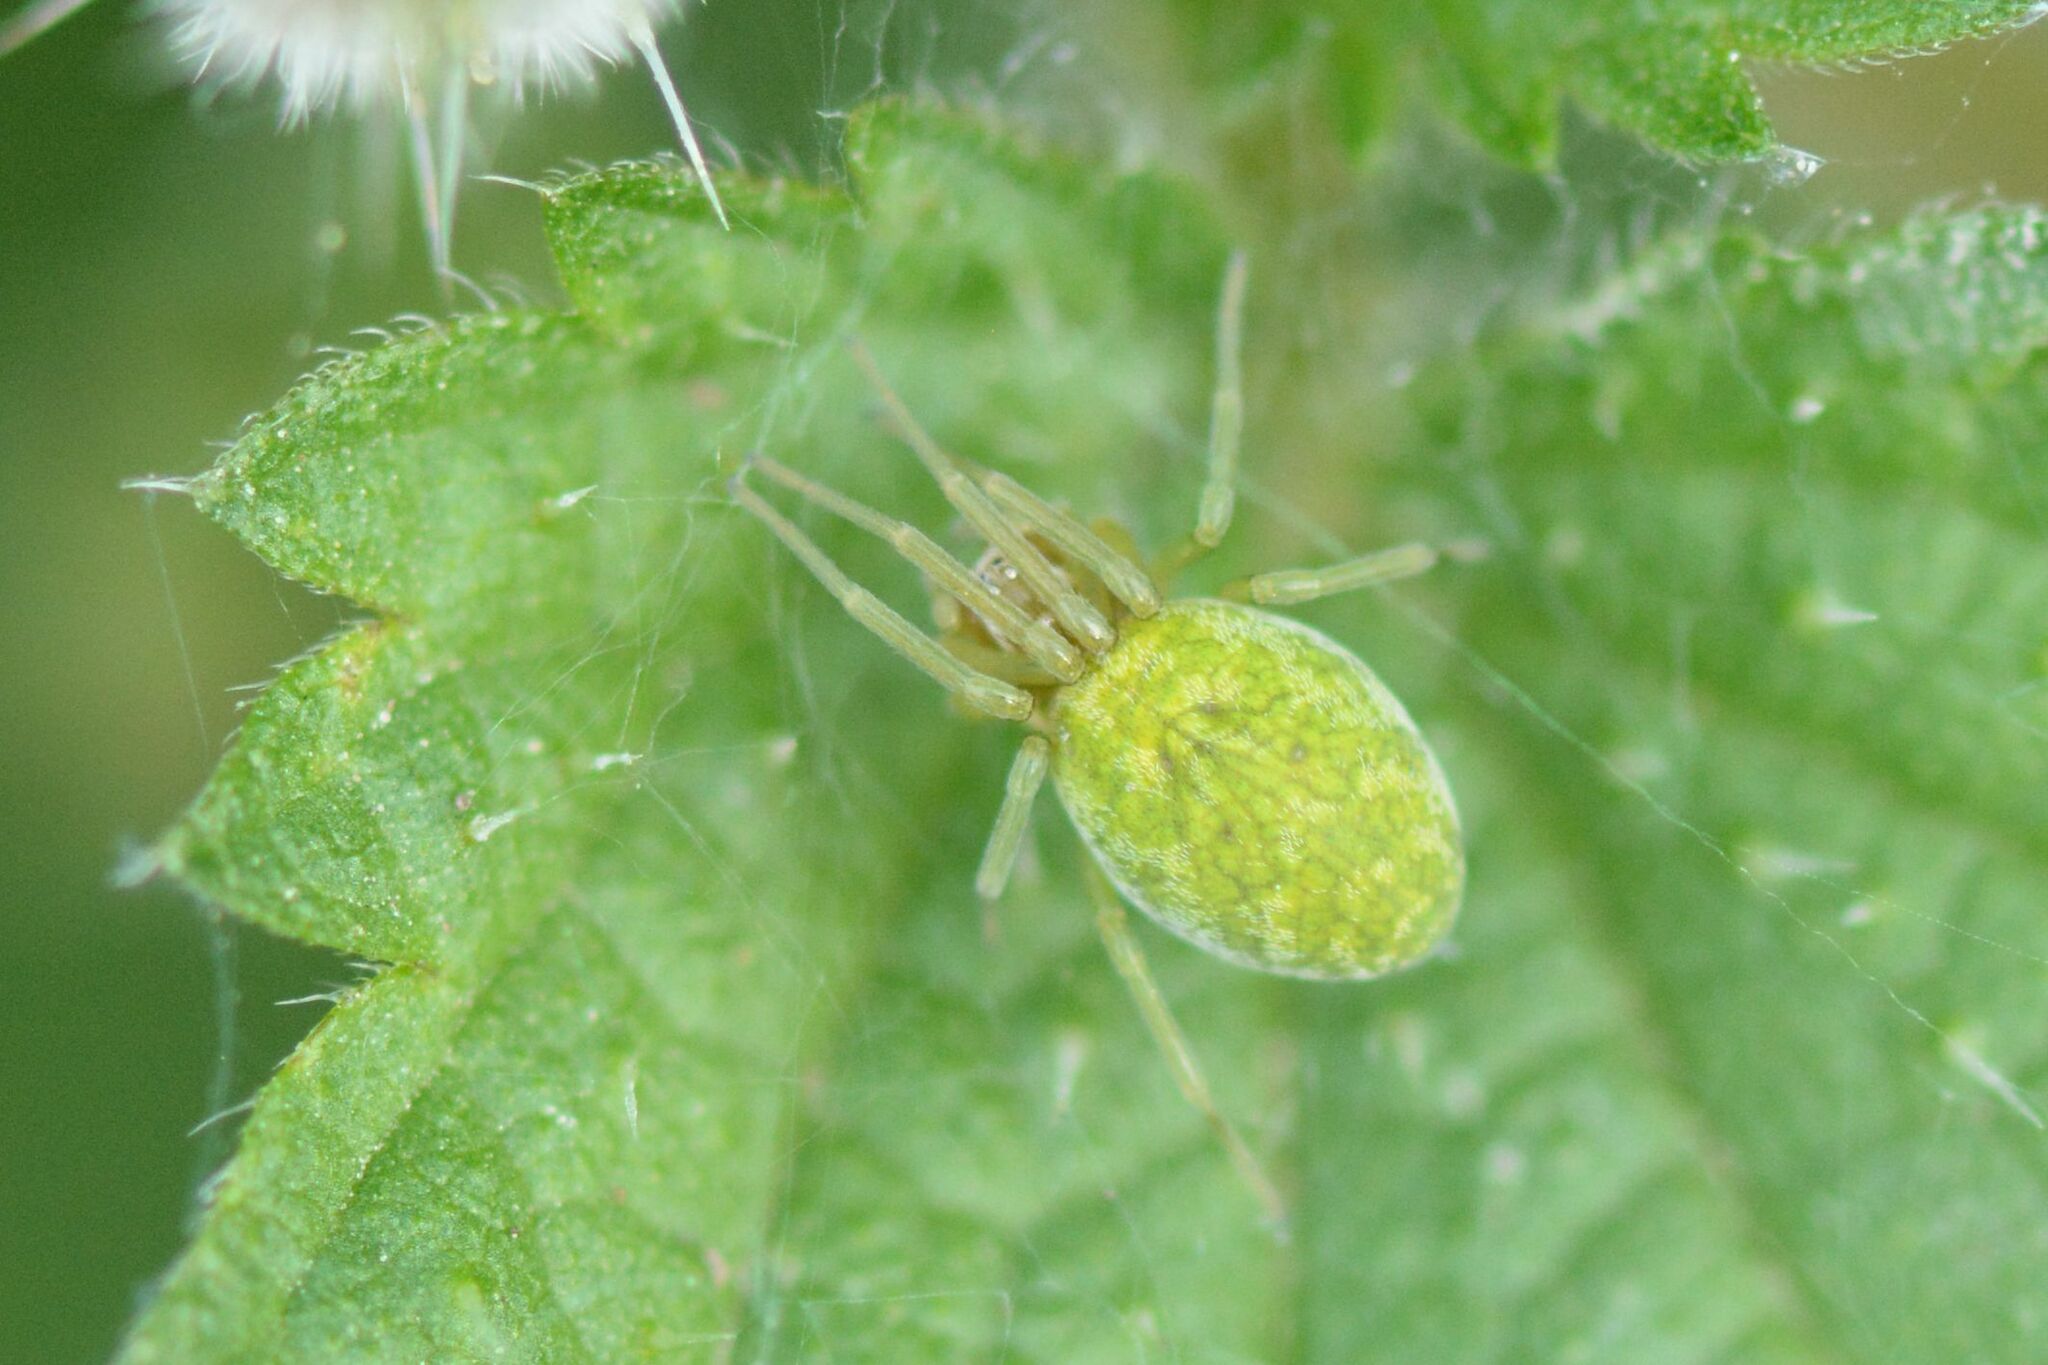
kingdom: Animalia
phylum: Arthropoda
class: Arachnida
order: Araneae
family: Dictynidae
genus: Nigma
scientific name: Nigma walckenaeri
